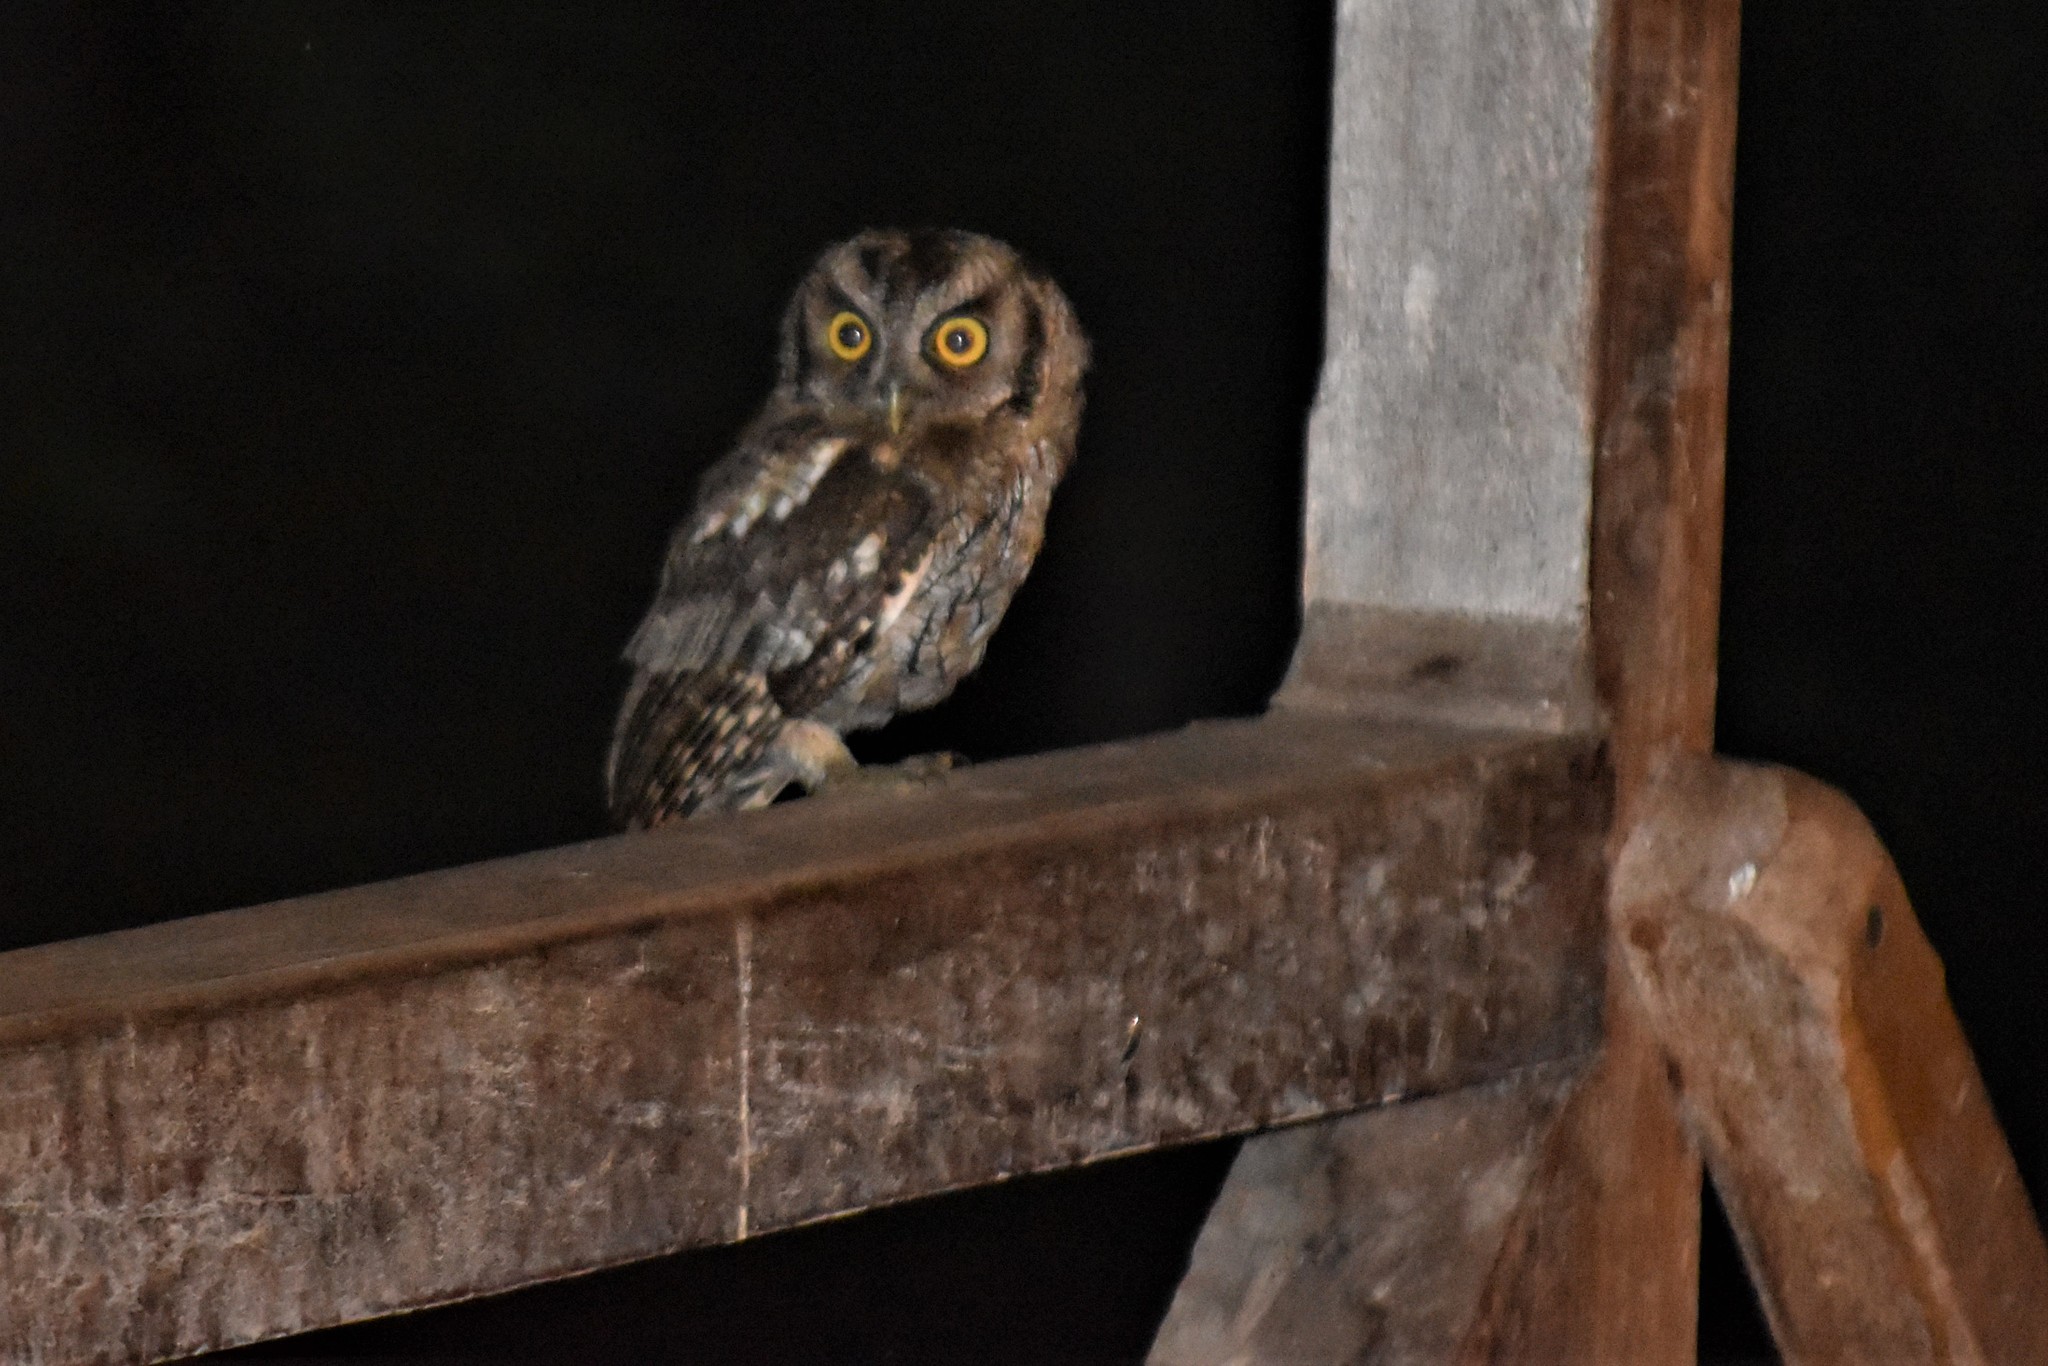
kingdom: Animalia
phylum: Chordata
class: Aves
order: Strigiformes
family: Strigidae
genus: Megascops
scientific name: Megascops choliba
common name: Tropical screech-owl
